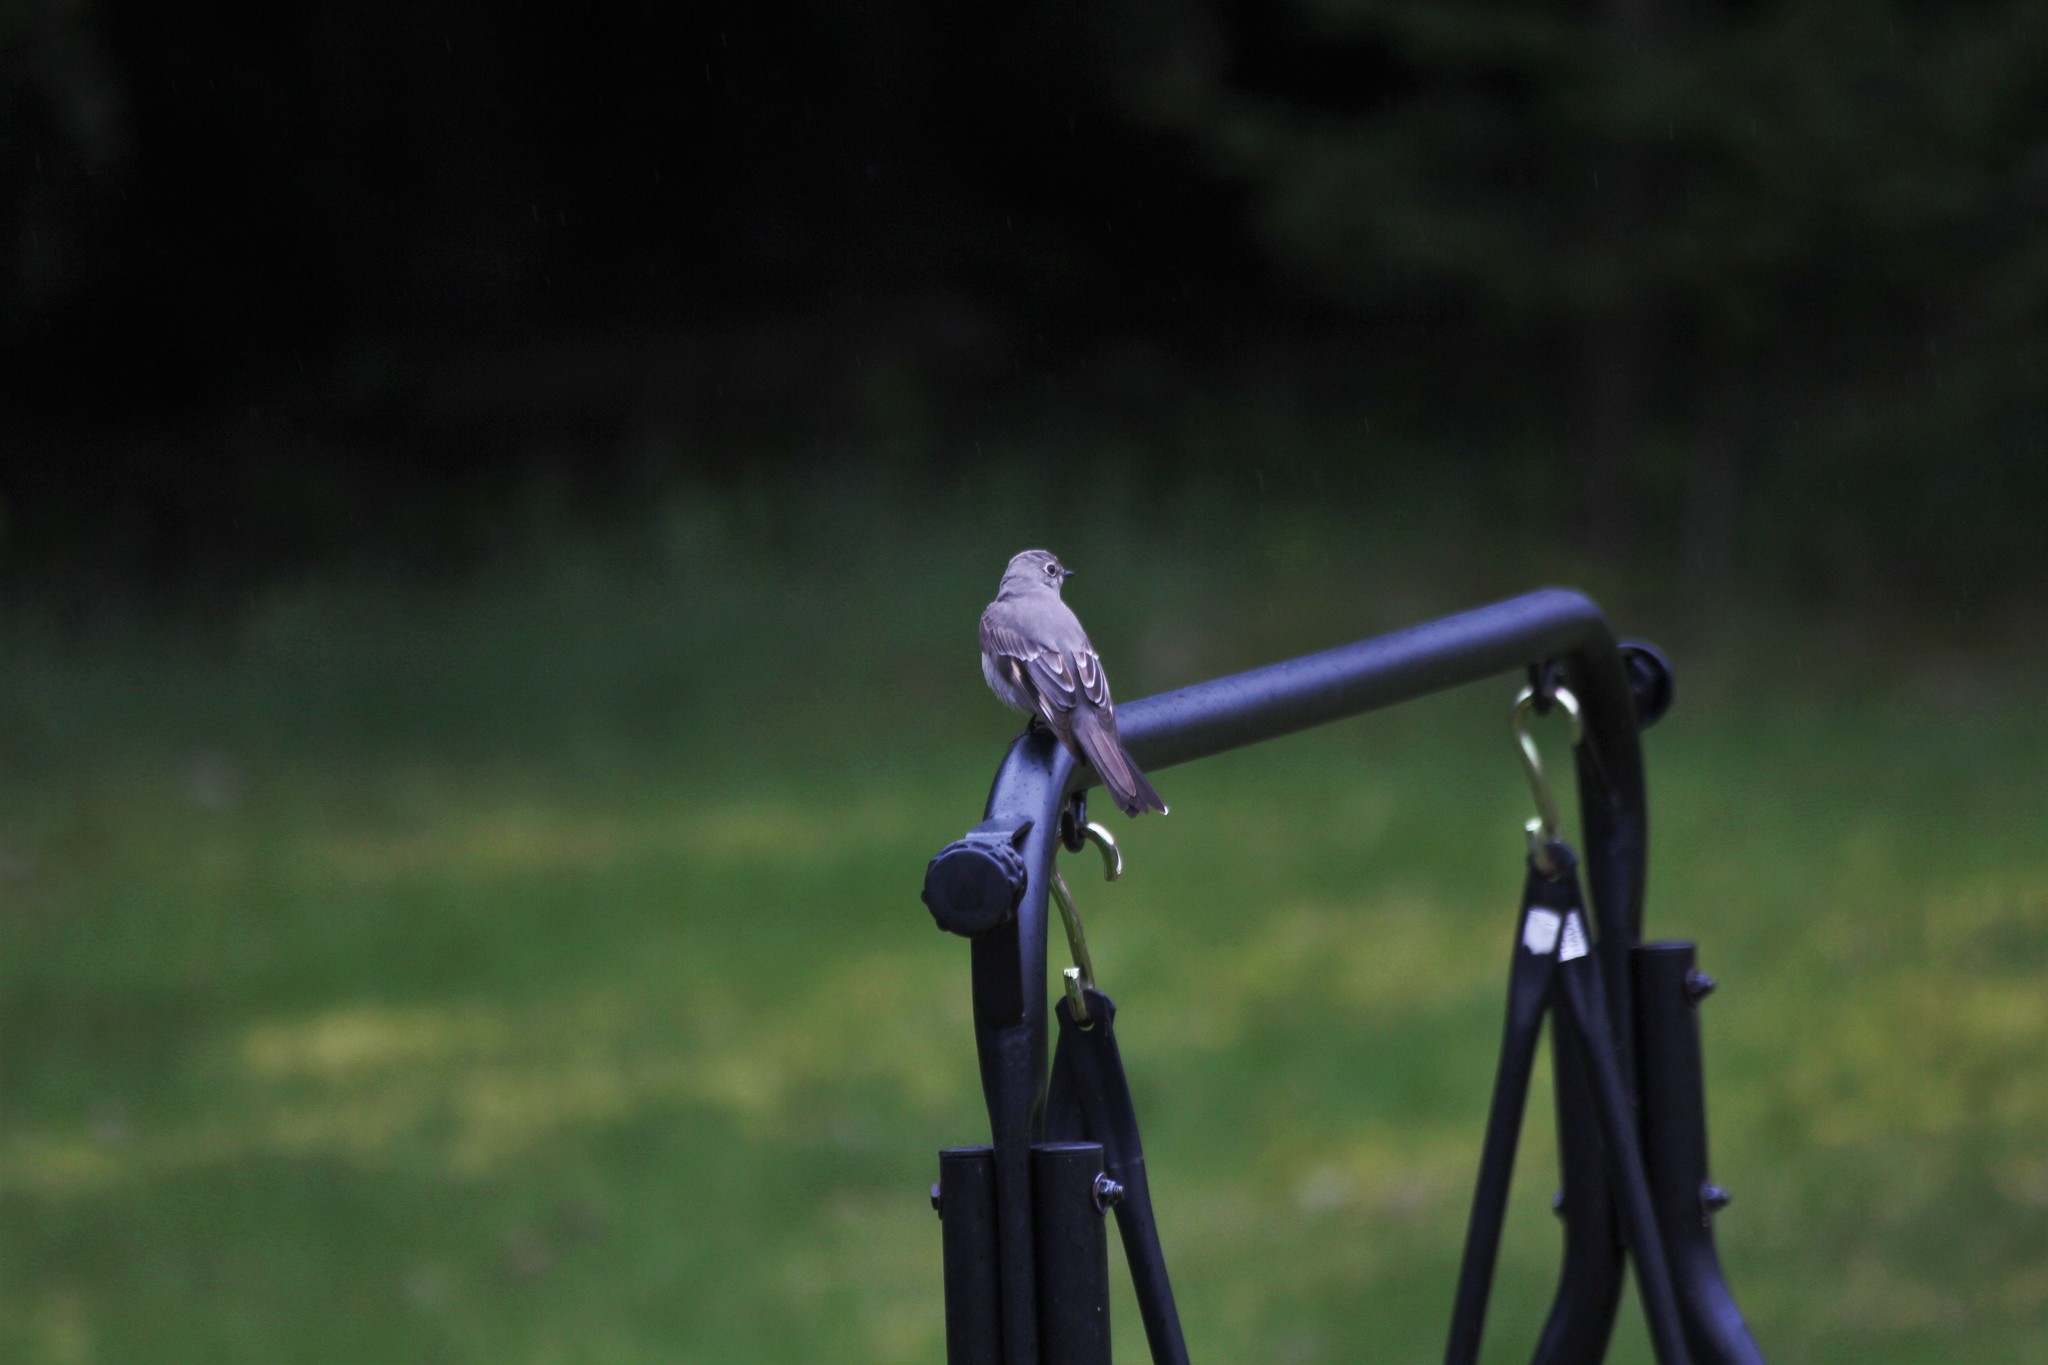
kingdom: Animalia
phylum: Chordata
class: Aves
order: Passeriformes
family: Turdidae
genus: Myadestes
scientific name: Myadestes townsendi
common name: Townsend's solitaire
